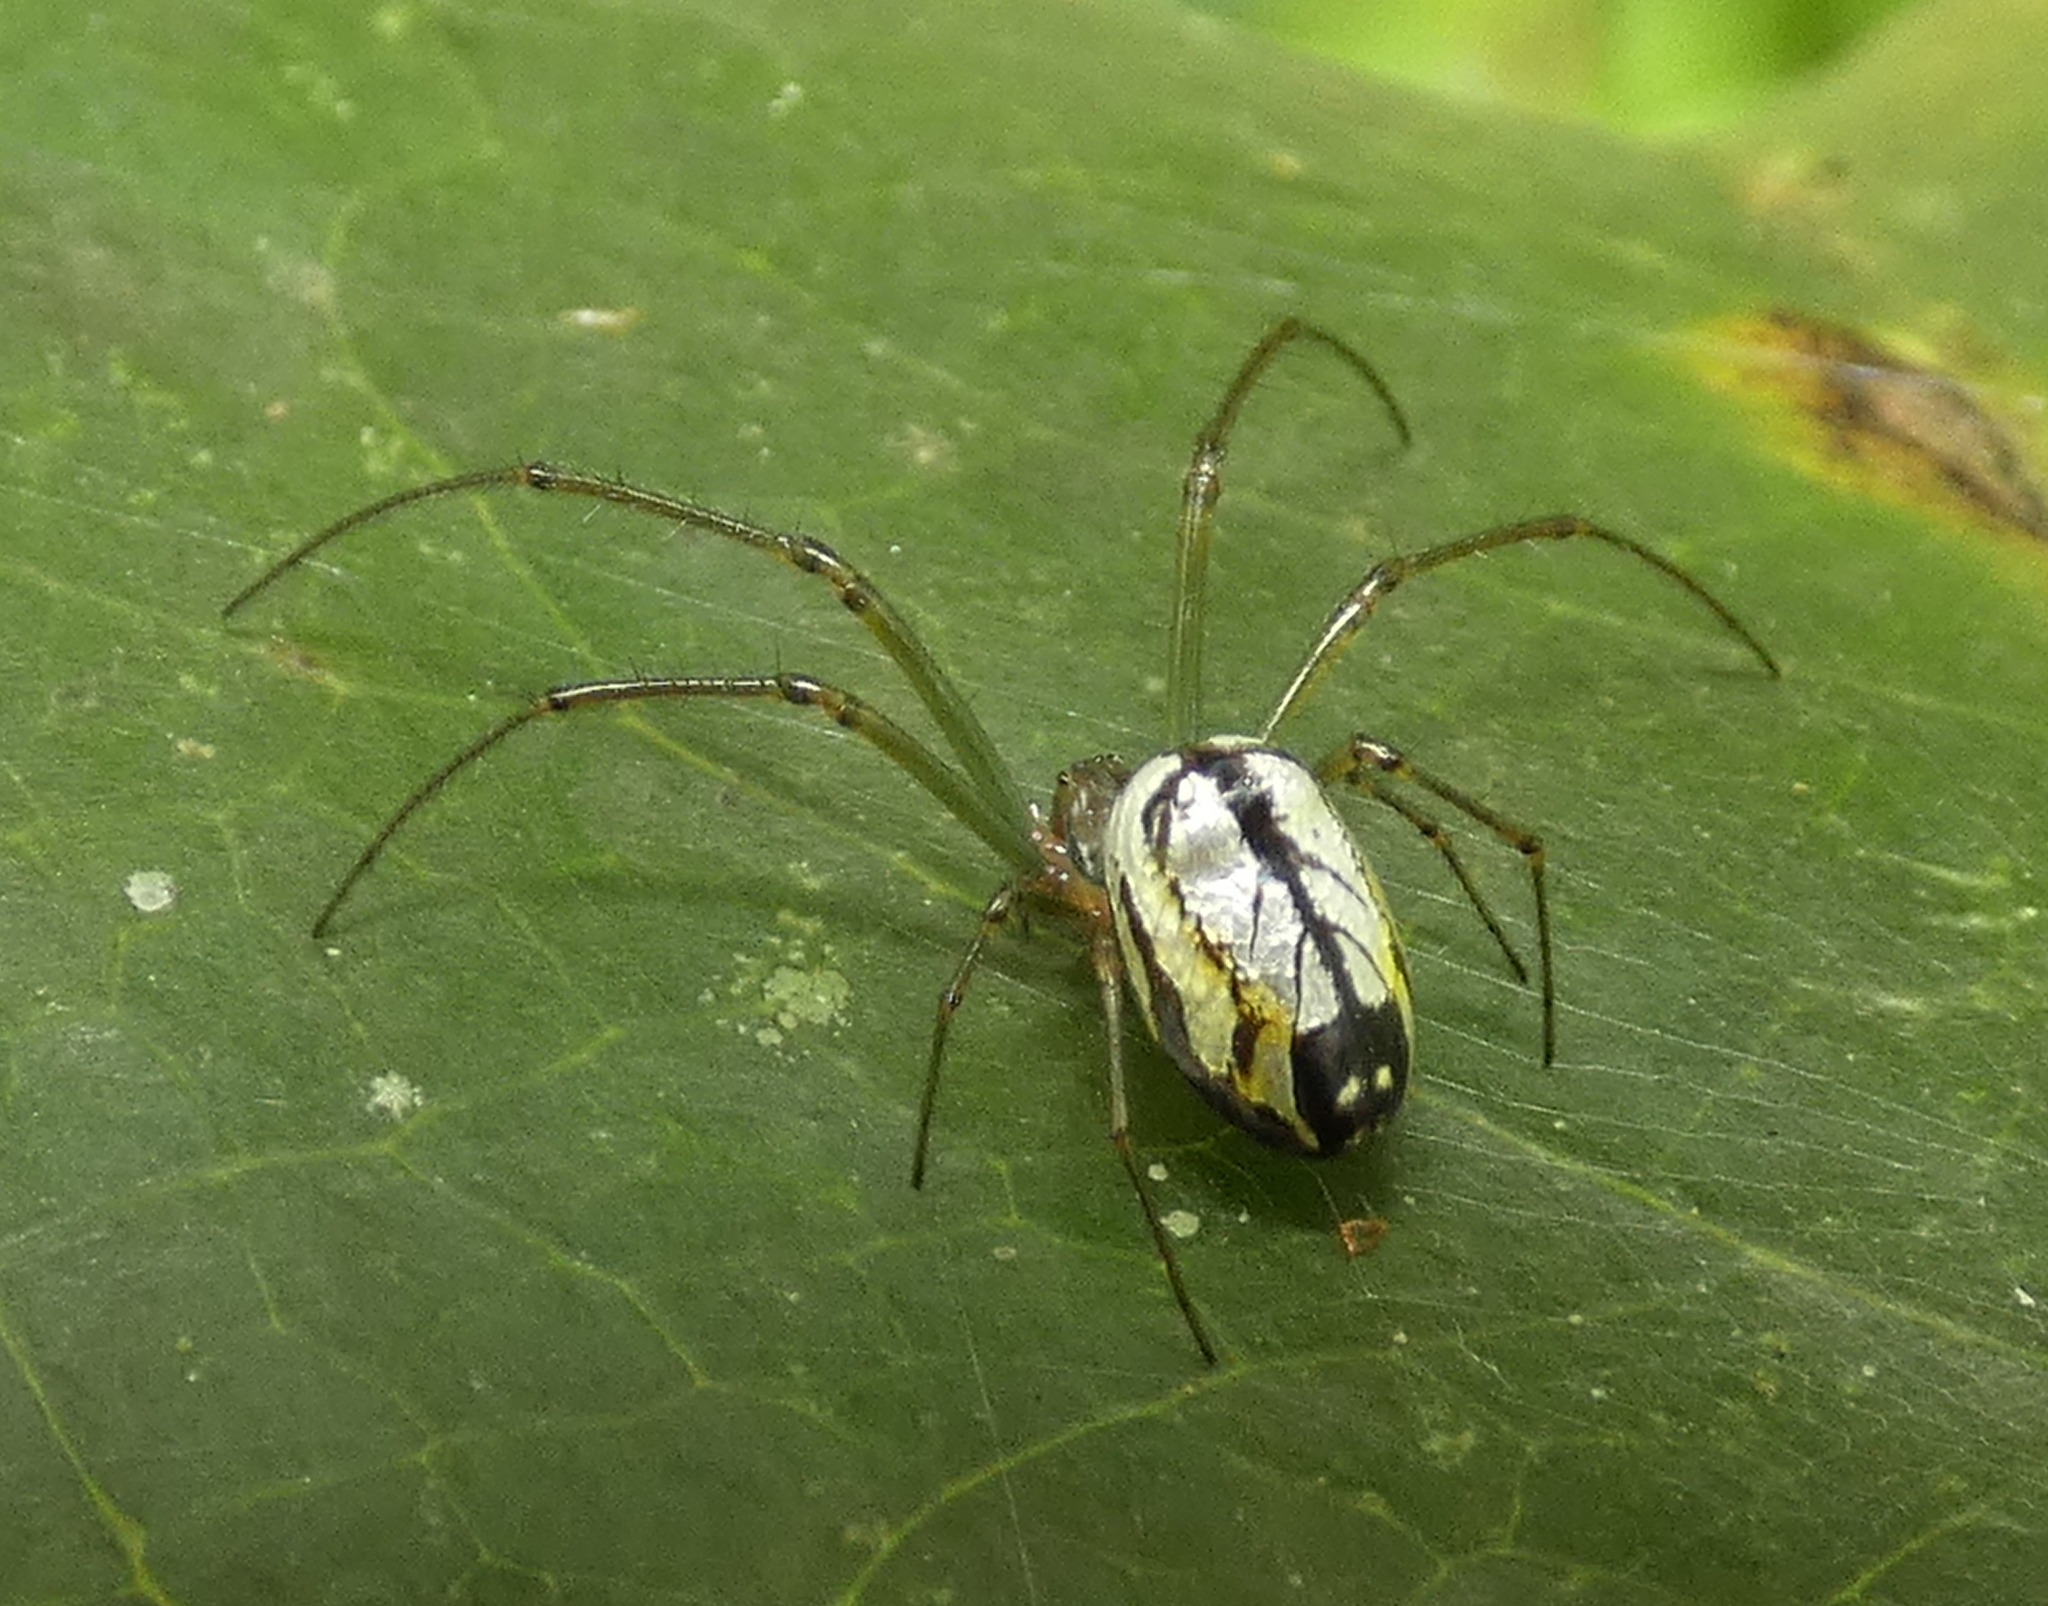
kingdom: Animalia
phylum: Arthropoda
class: Arachnida
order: Araneae
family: Tetragnathidae
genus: Leucauge
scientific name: Leucauge volupis
